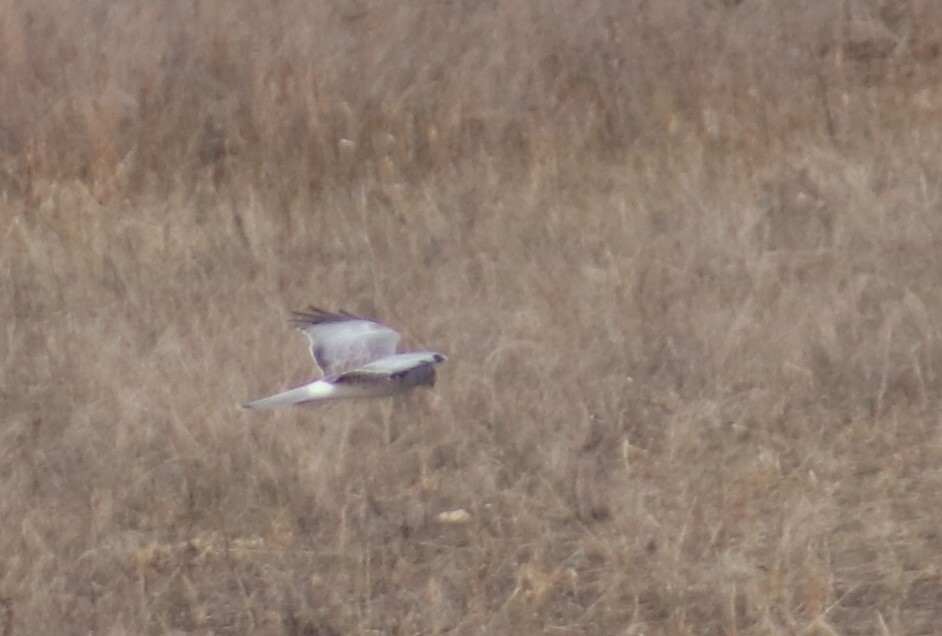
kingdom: Animalia
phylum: Chordata
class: Aves
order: Accipitriformes
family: Accipitridae
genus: Circus
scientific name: Circus cyaneus
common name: Hen harrier
